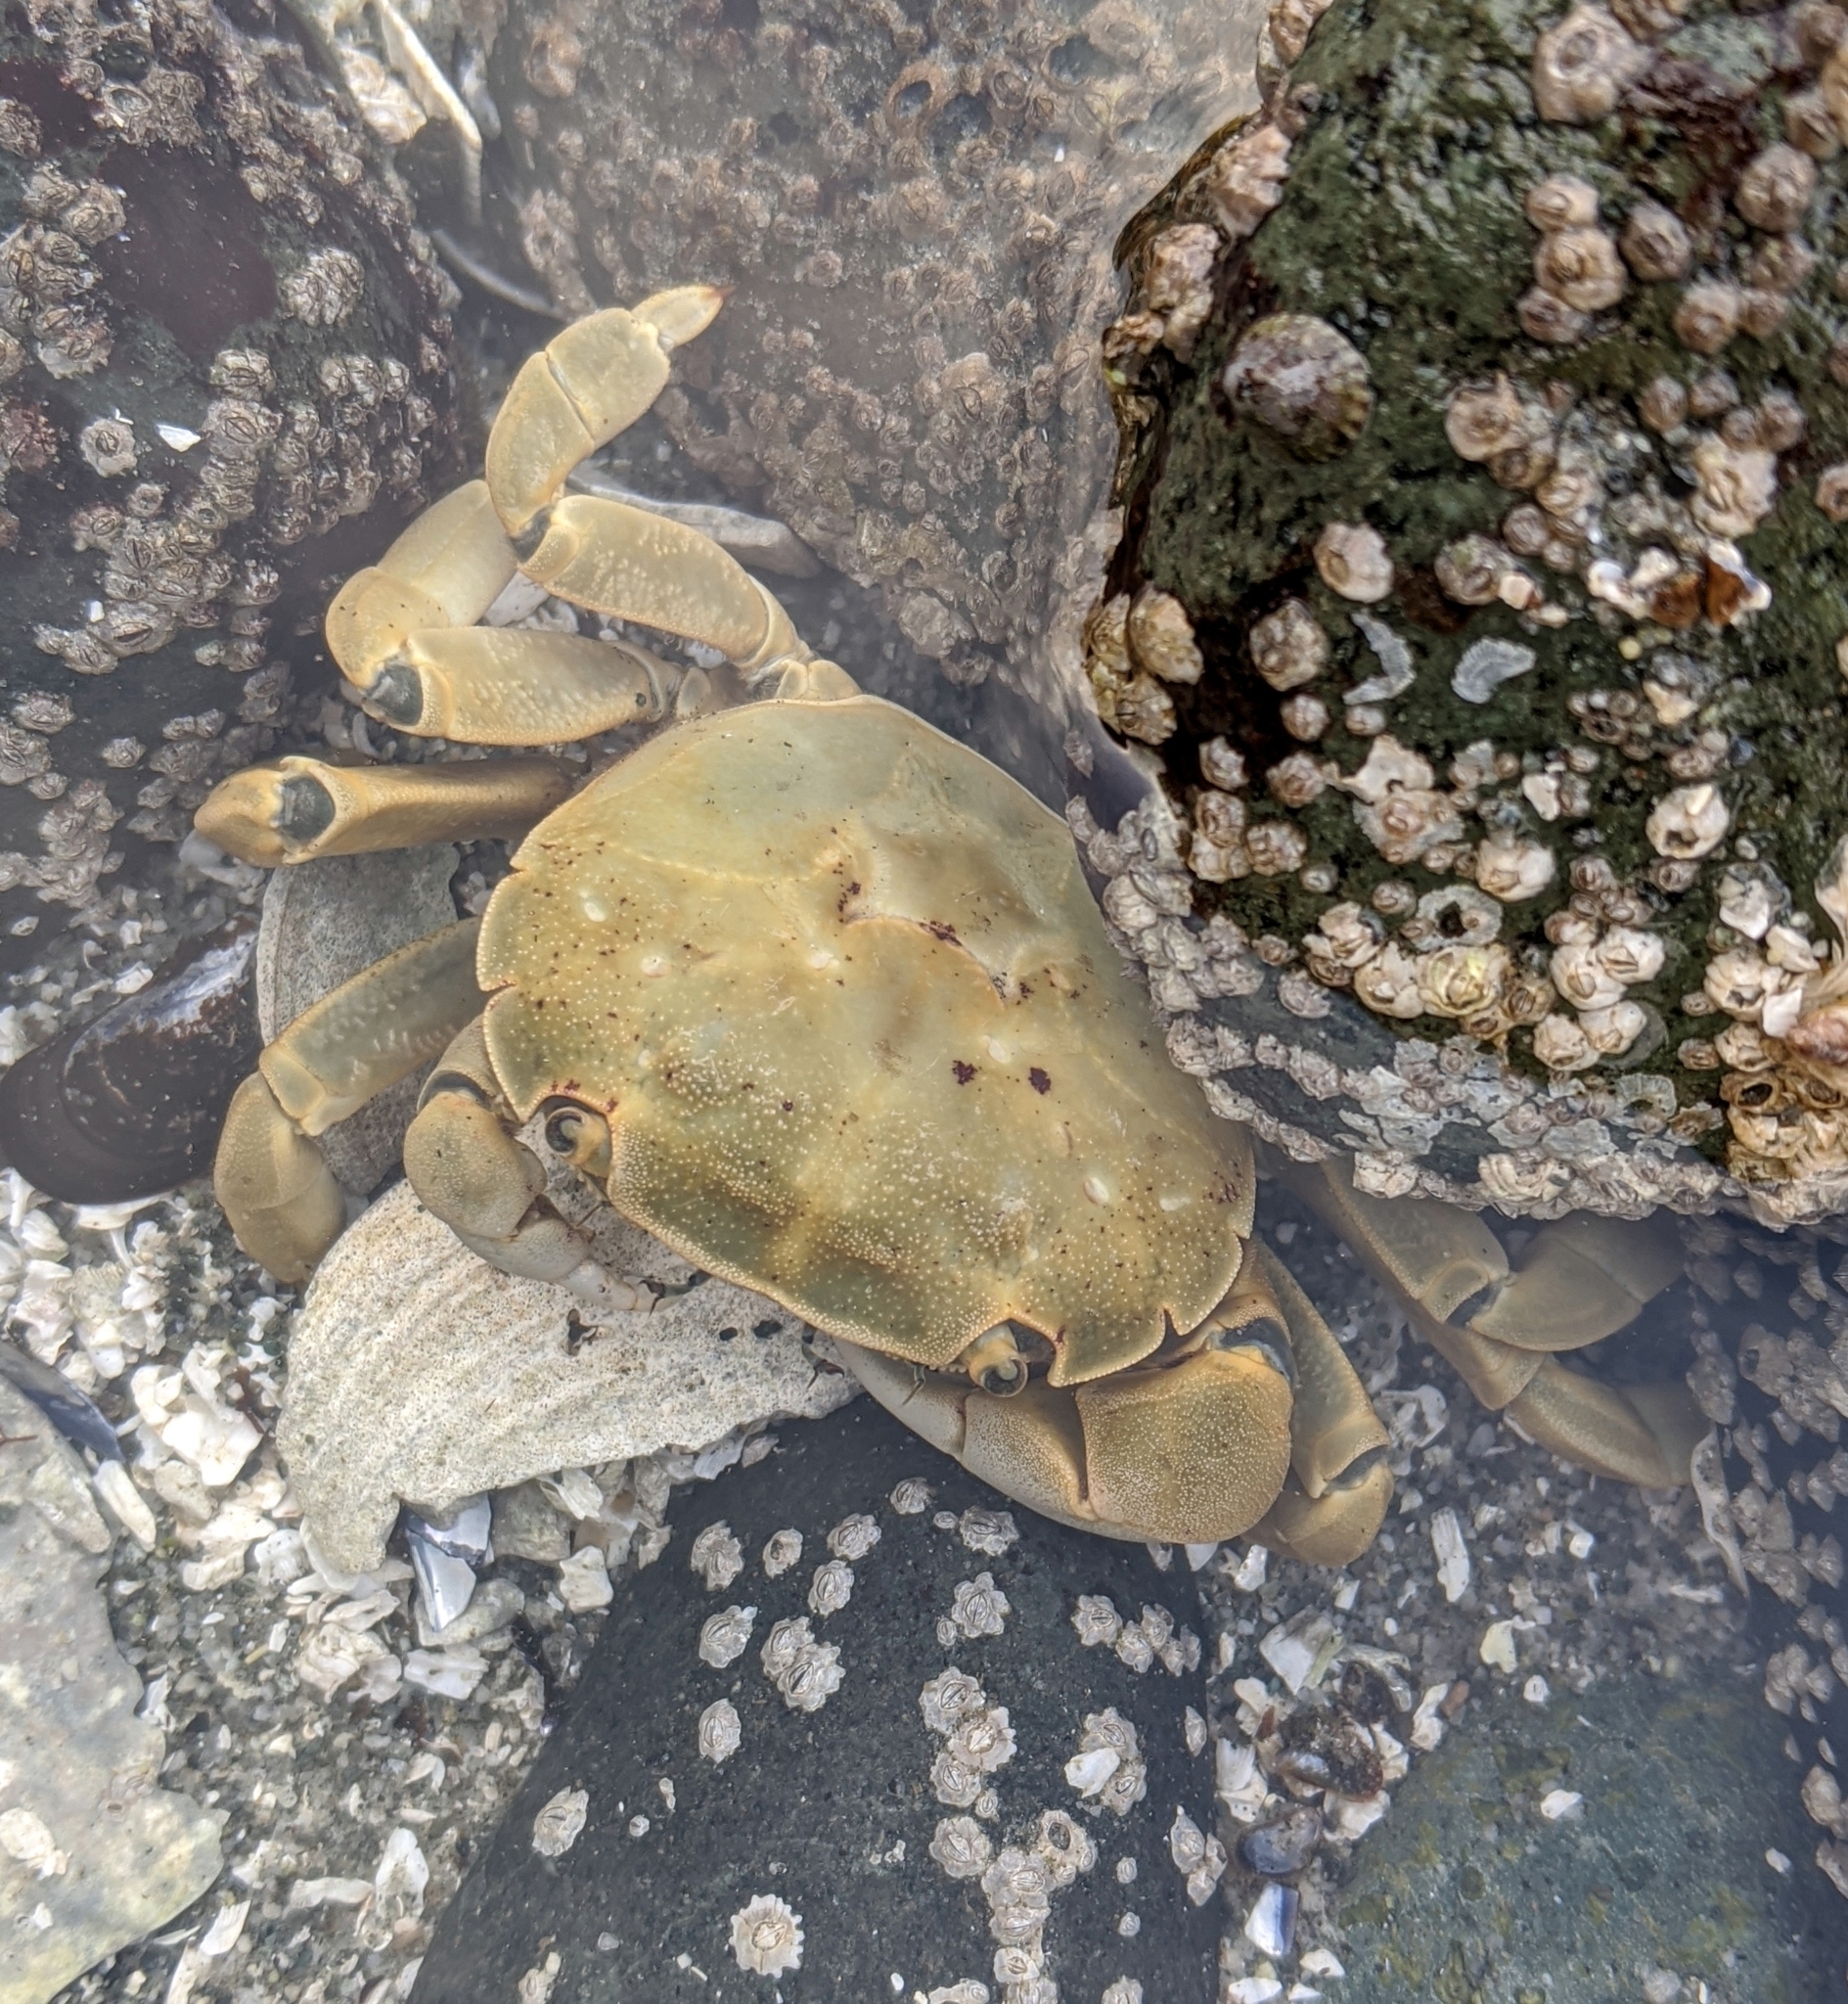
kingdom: Animalia
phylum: Arthropoda
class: Malacostraca
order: Decapoda
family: Varunidae
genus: Hemigrapsus
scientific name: Hemigrapsus nudus
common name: Purple shore crab
